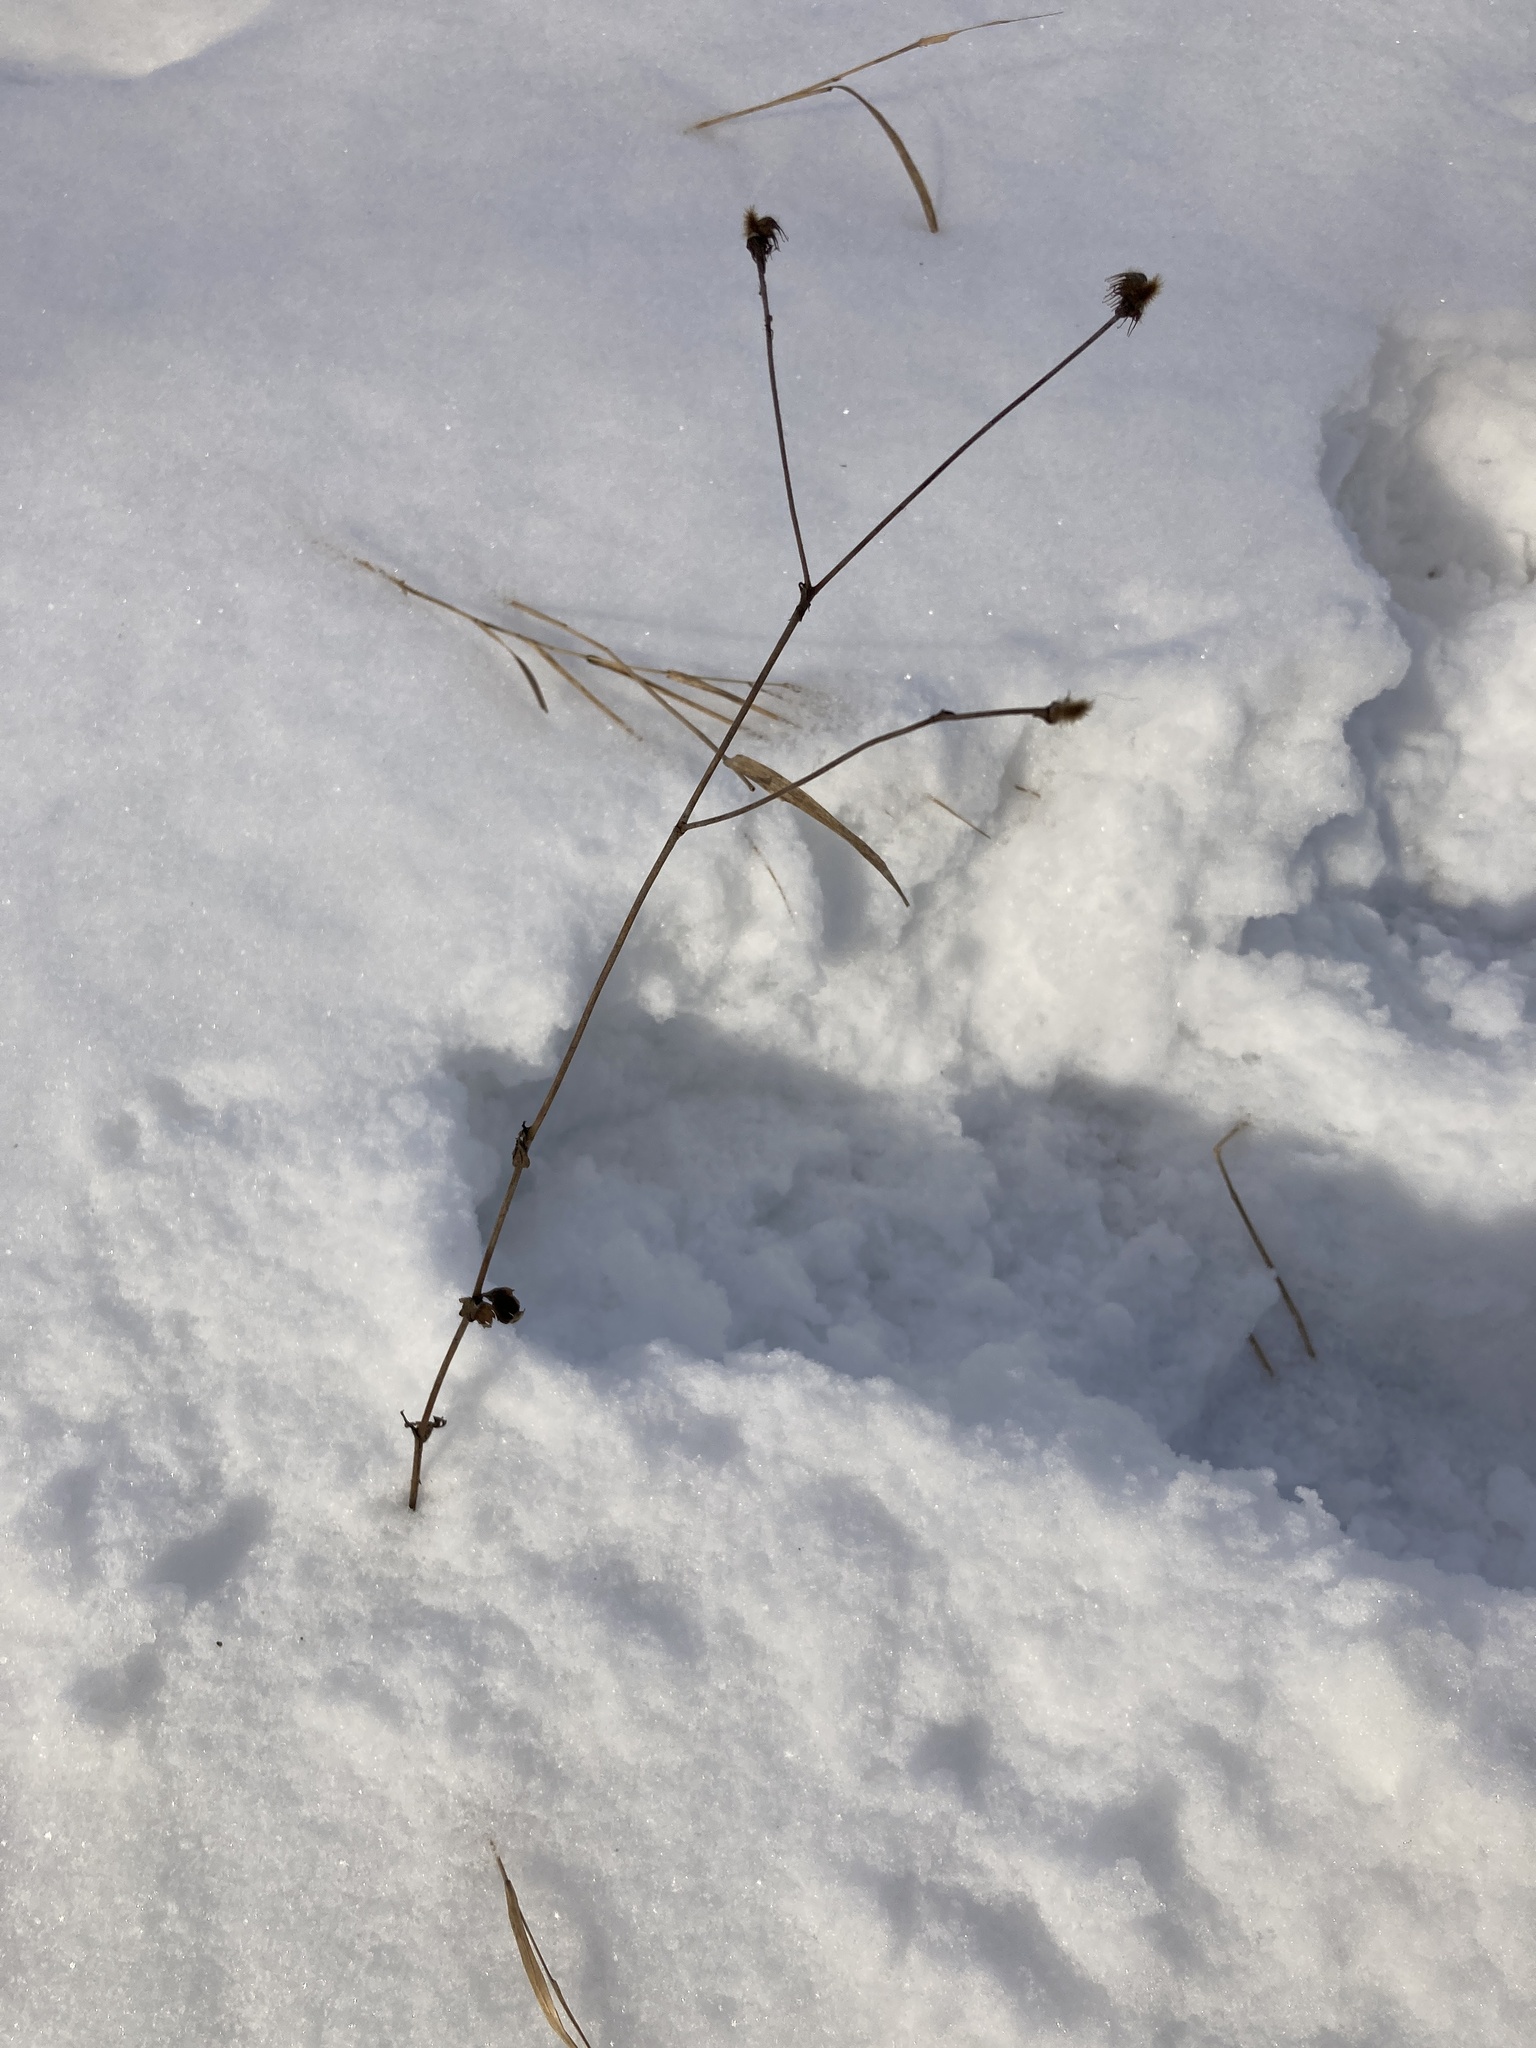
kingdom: Plantae
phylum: Tracheophyta
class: Magnoliopsida
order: Rosales
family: Rosaceae
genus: Geum
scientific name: Geum urbanum
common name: Wood avens
